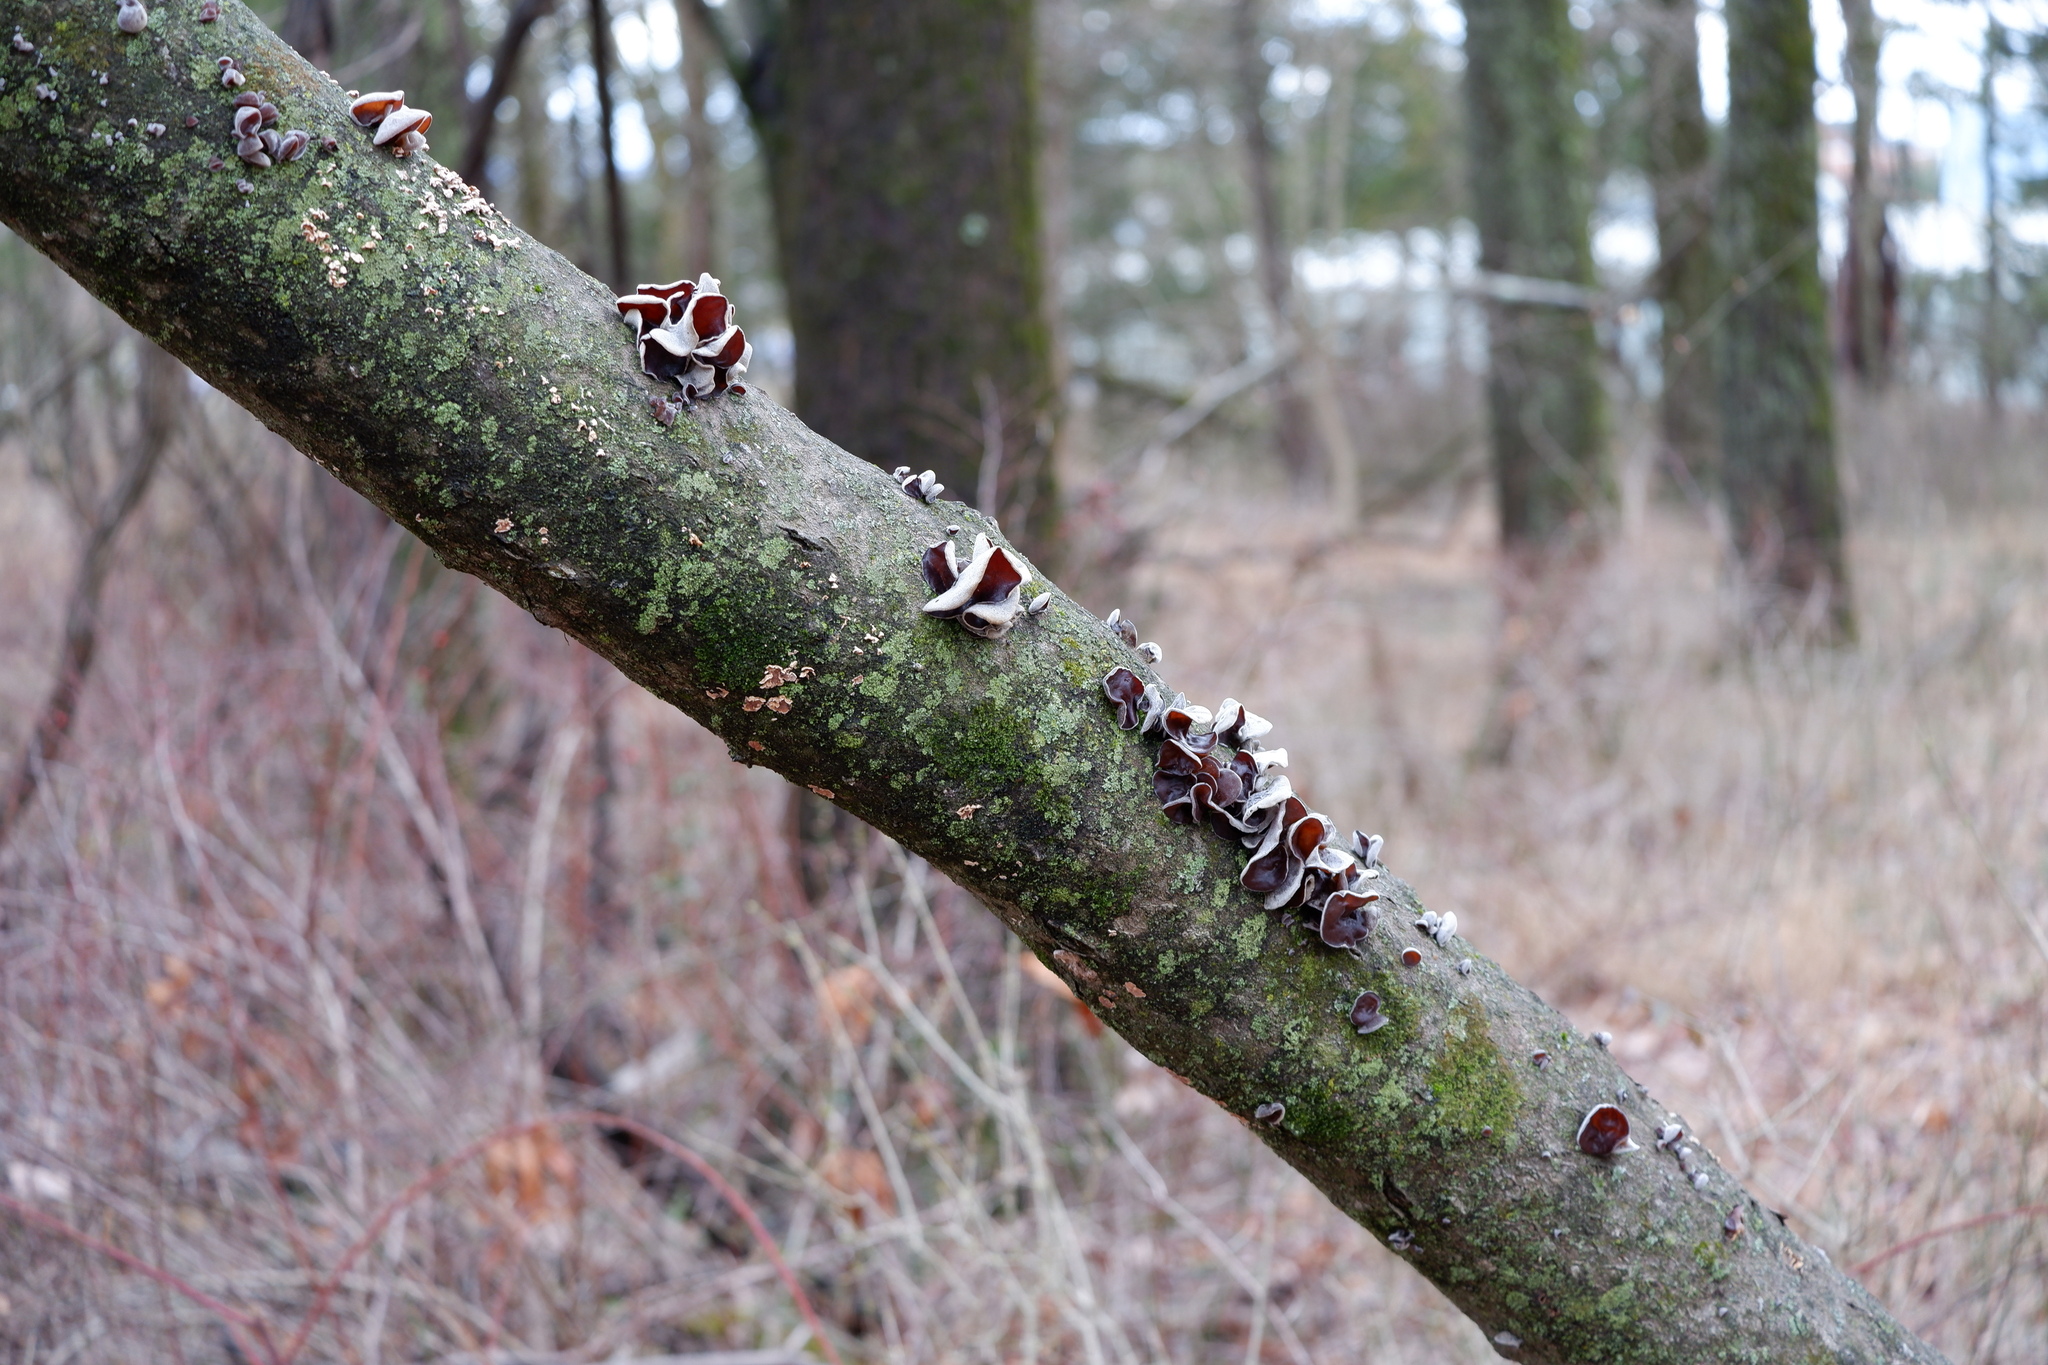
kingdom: Fungi
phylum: Basidiomycota
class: Agaricomycetes
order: Auriculariales
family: Auriculariaceae
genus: Auricularia
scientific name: Auricularia americana
